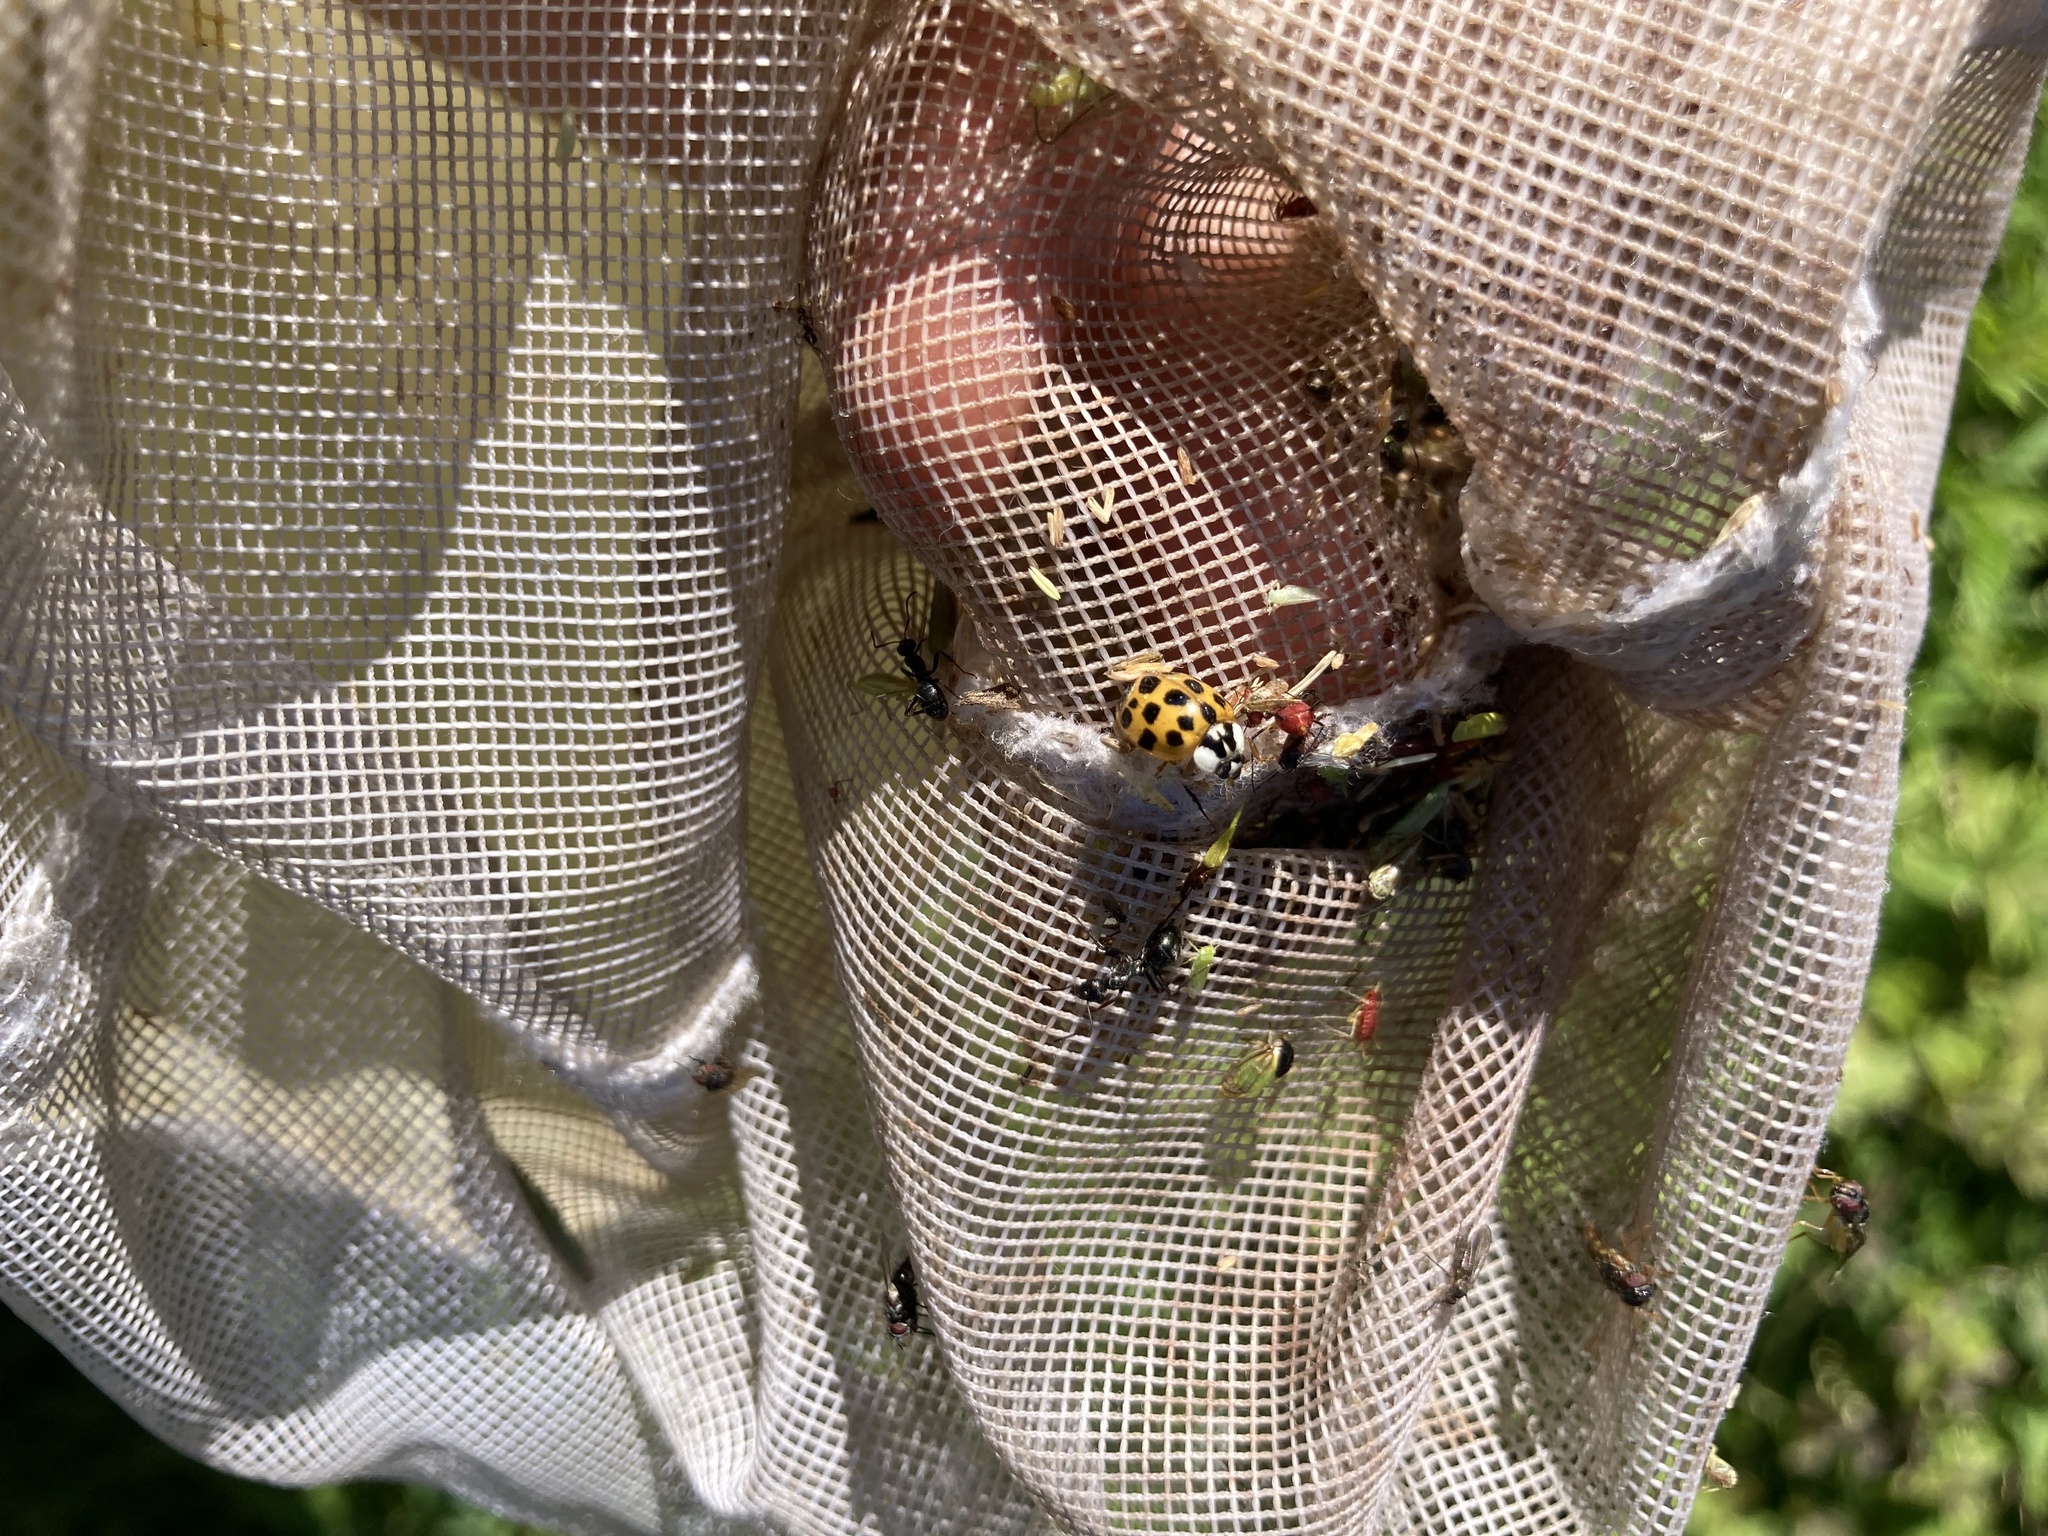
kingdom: Animalia
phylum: Arthropoda
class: Insecta
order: Coleoptera
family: Coccinellidae
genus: Harmonia
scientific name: Harmonia axyridis
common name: Harlequin ladybird
